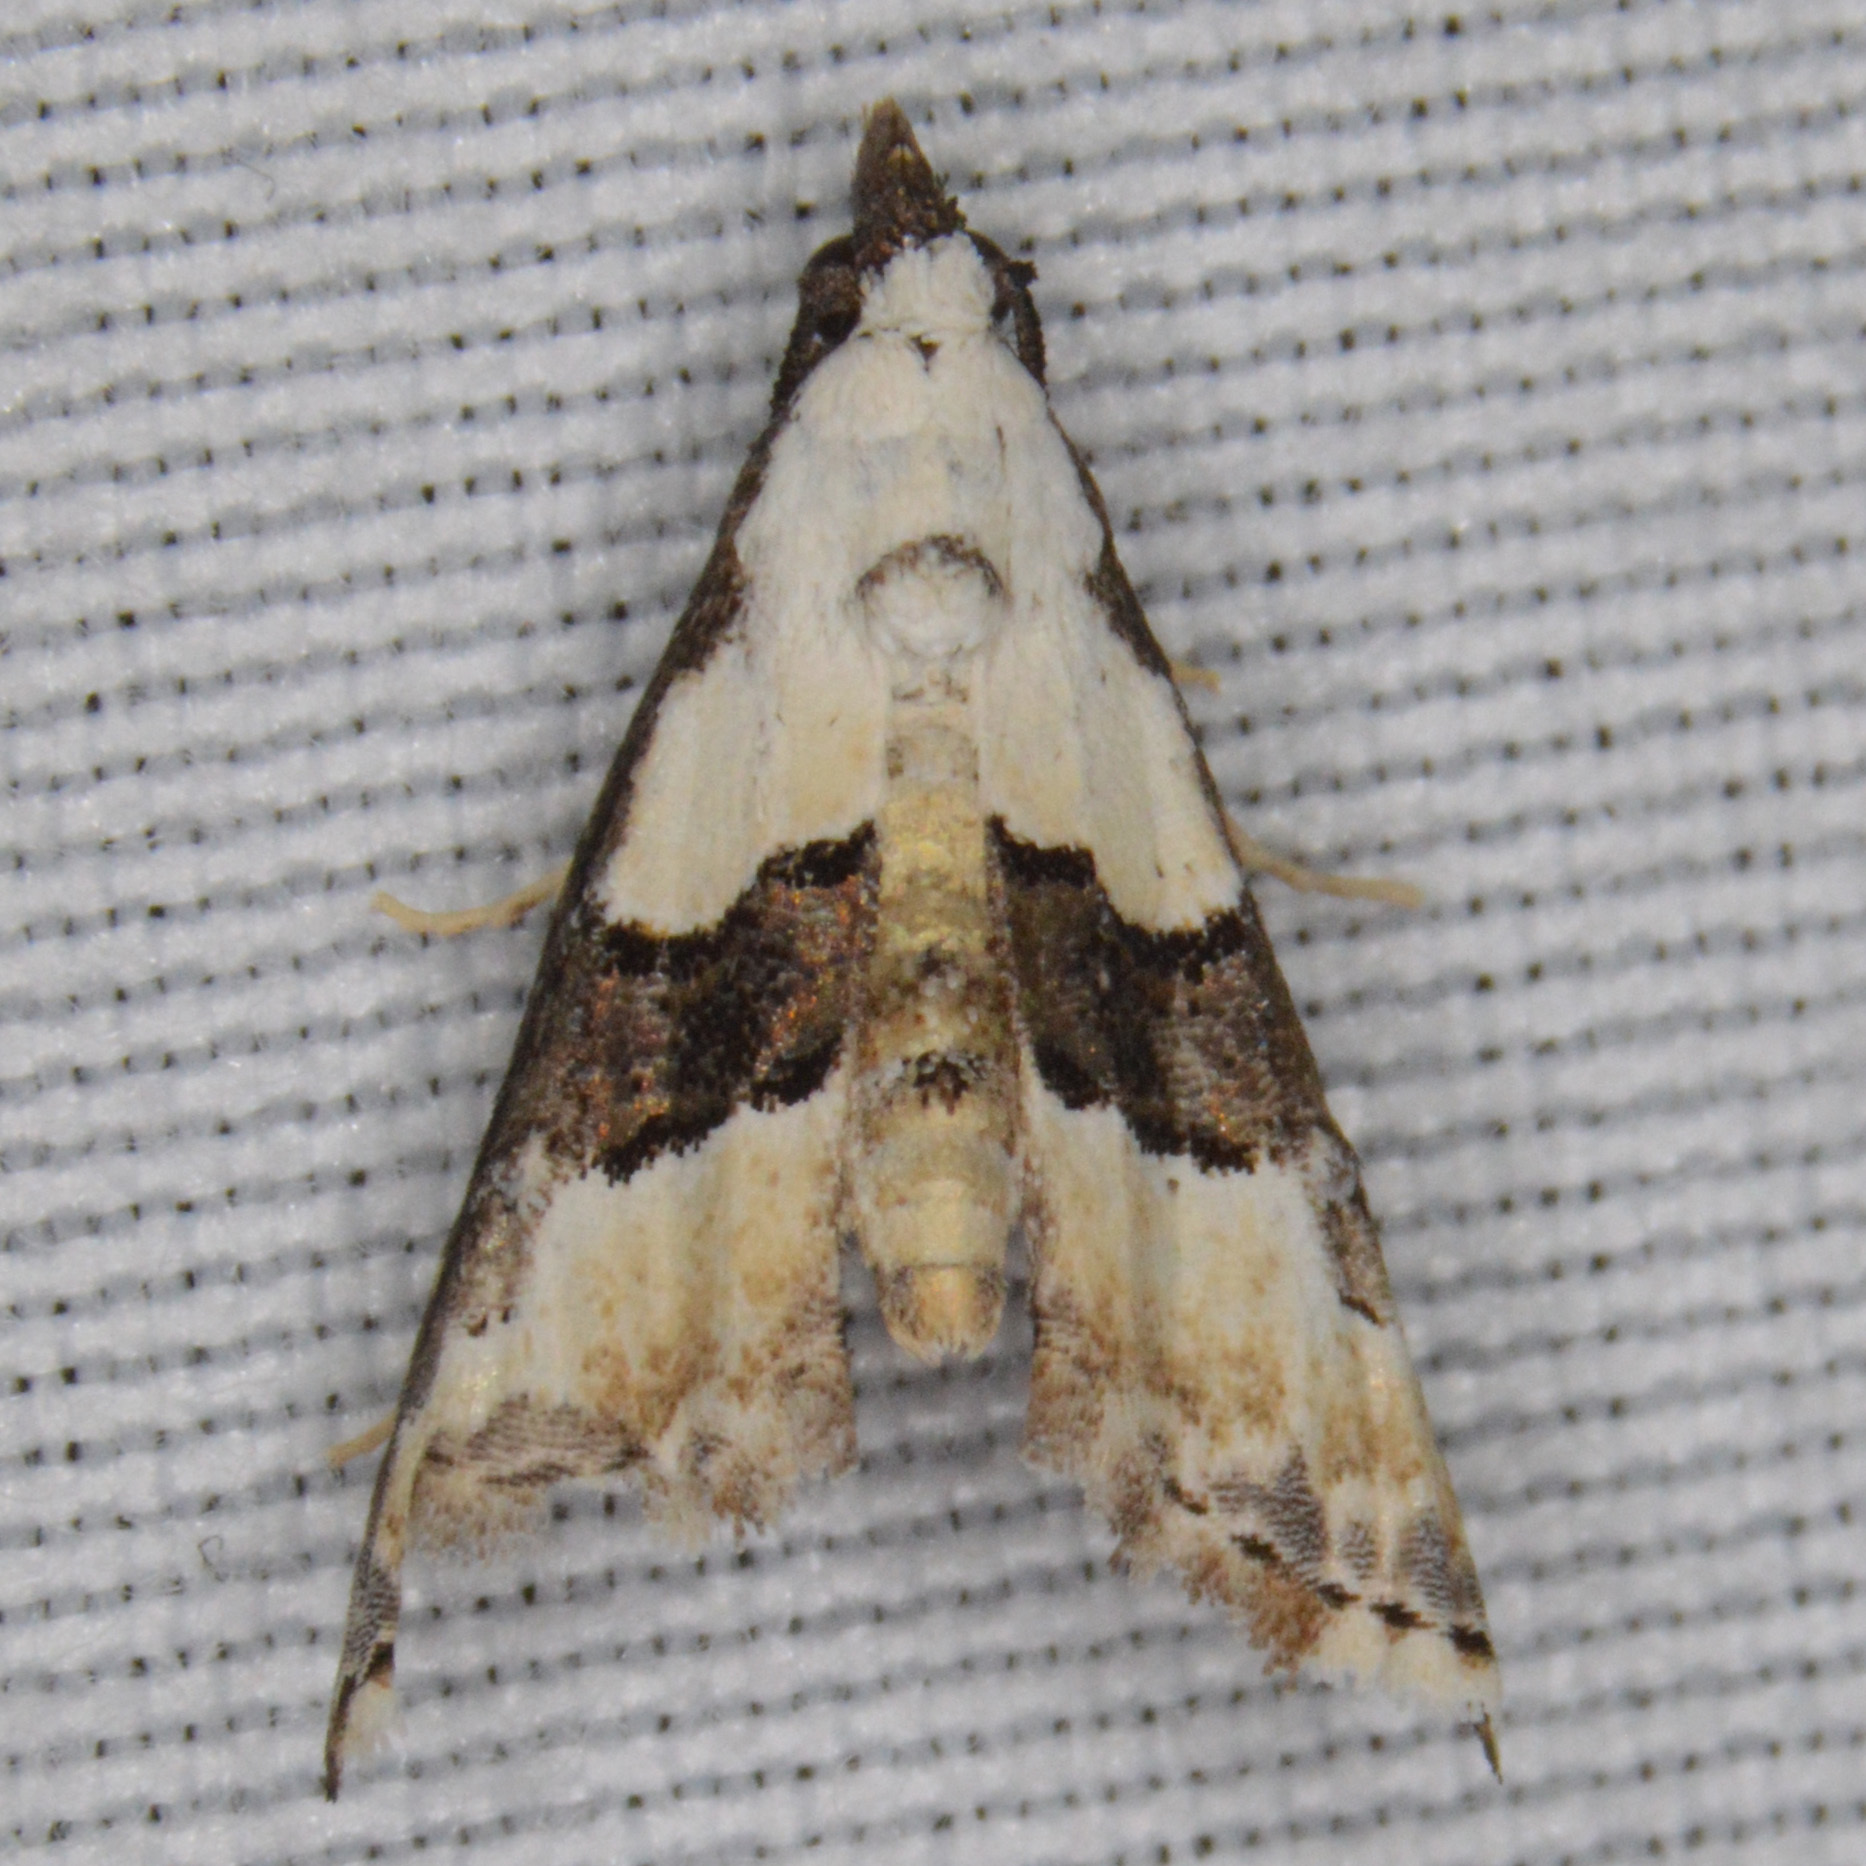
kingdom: Animalia
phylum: Arthropoda
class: Insecta
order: Lepidoptera
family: Noctuidae
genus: Nigetia
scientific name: Nigetia formosalis
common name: Thin-winged owlet
